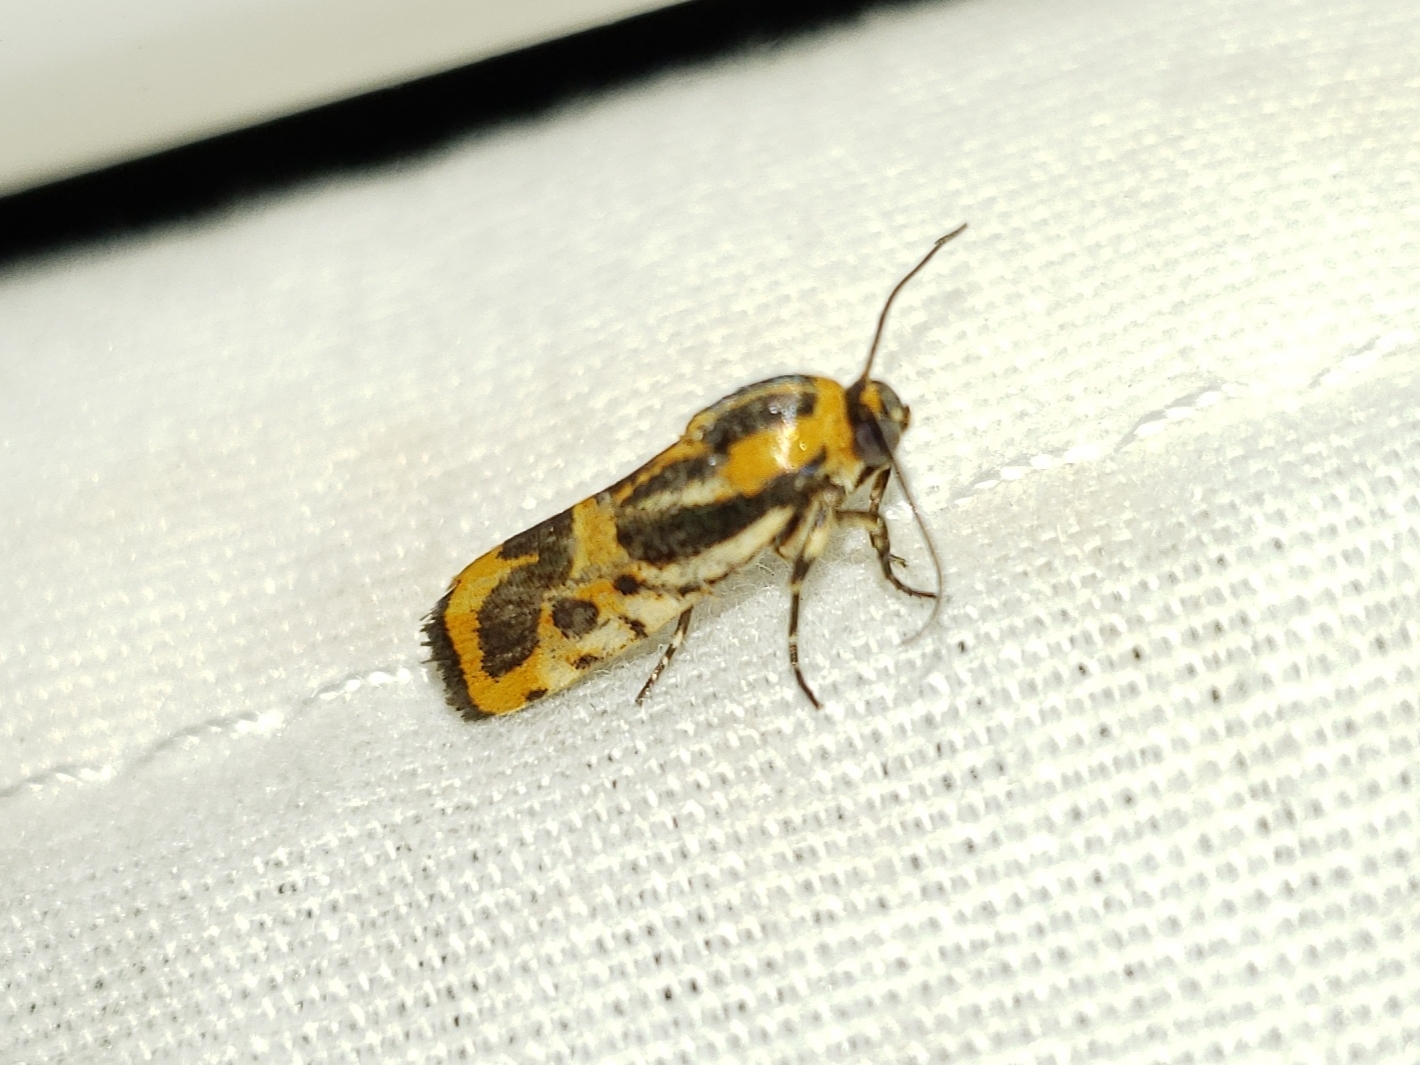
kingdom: Animalia
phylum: Arthropoda
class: Insecta
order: Lepidoptera
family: Noctuidae
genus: Acontia
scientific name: Acontia onagrus
